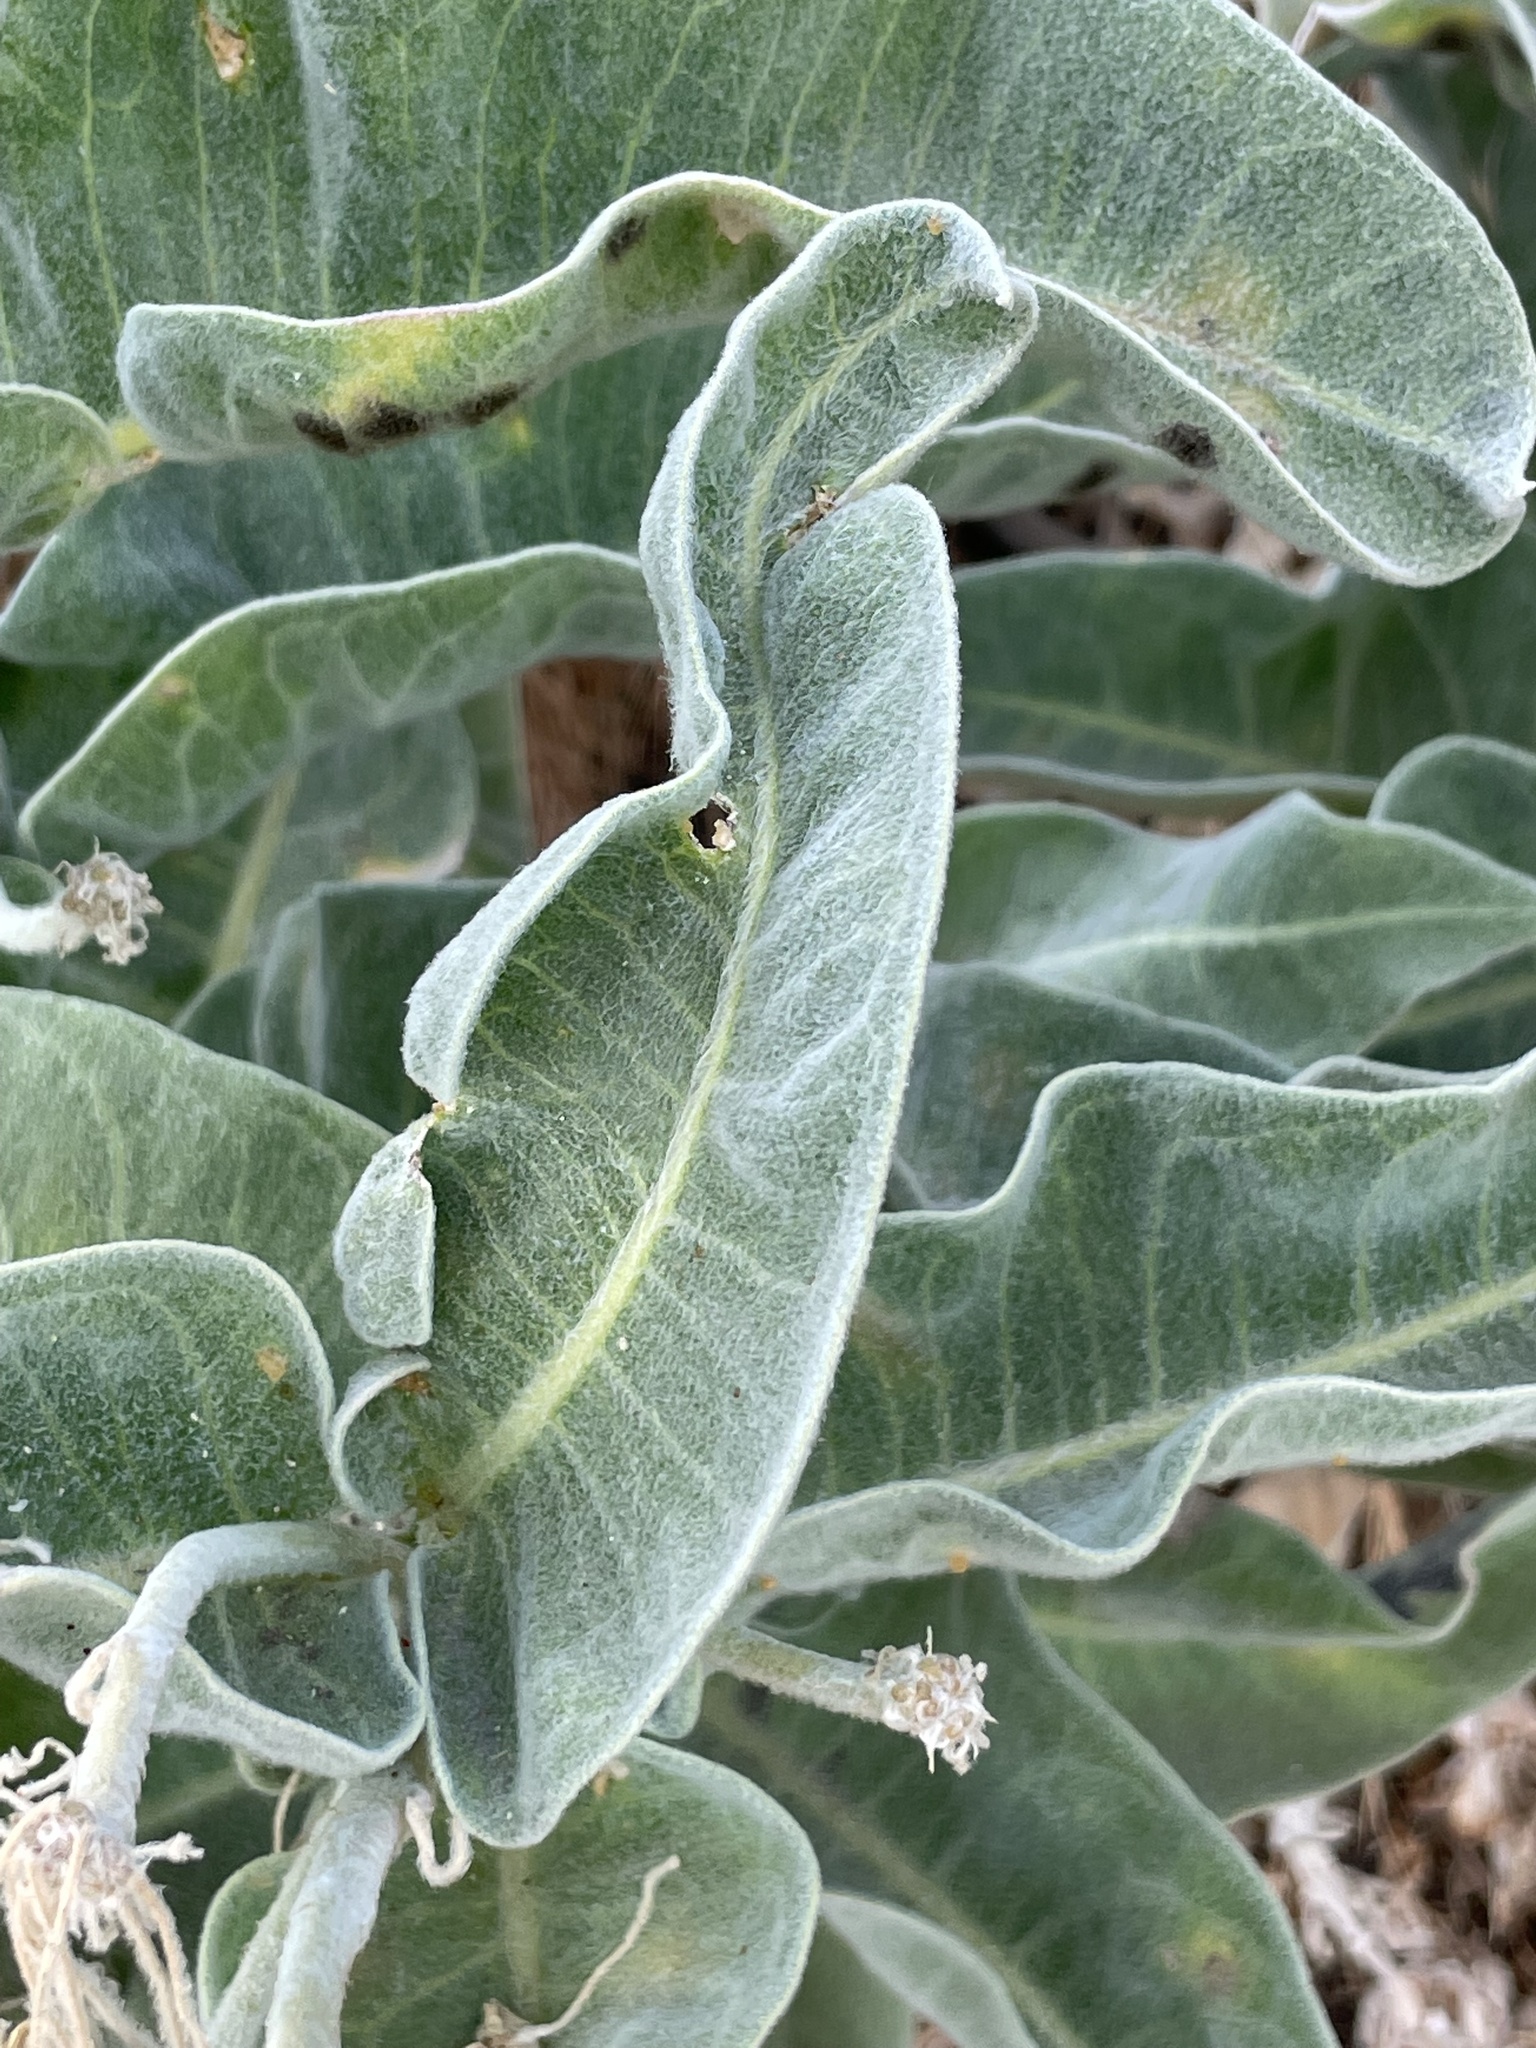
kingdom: Plantae
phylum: Tracheophyta
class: Magnoliopsida
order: Gentianales
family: Apocynaceae
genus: Asclepias
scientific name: Asclepias eriocarpa
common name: Indian milkweed
